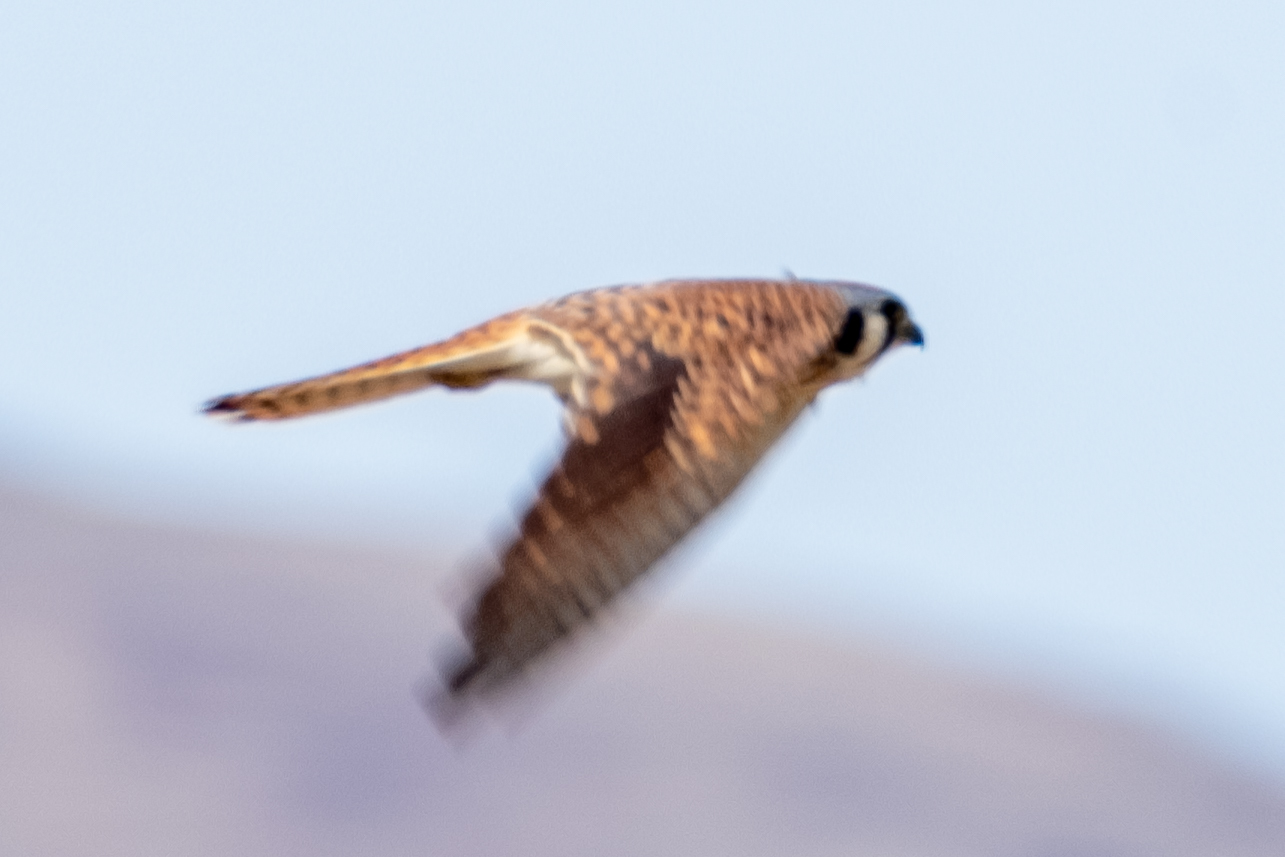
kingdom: Animalia
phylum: Chordata
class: Aves
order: Falconiformes
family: Falconidae
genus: Falco
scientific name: Falco sparverius
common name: American kestrel
